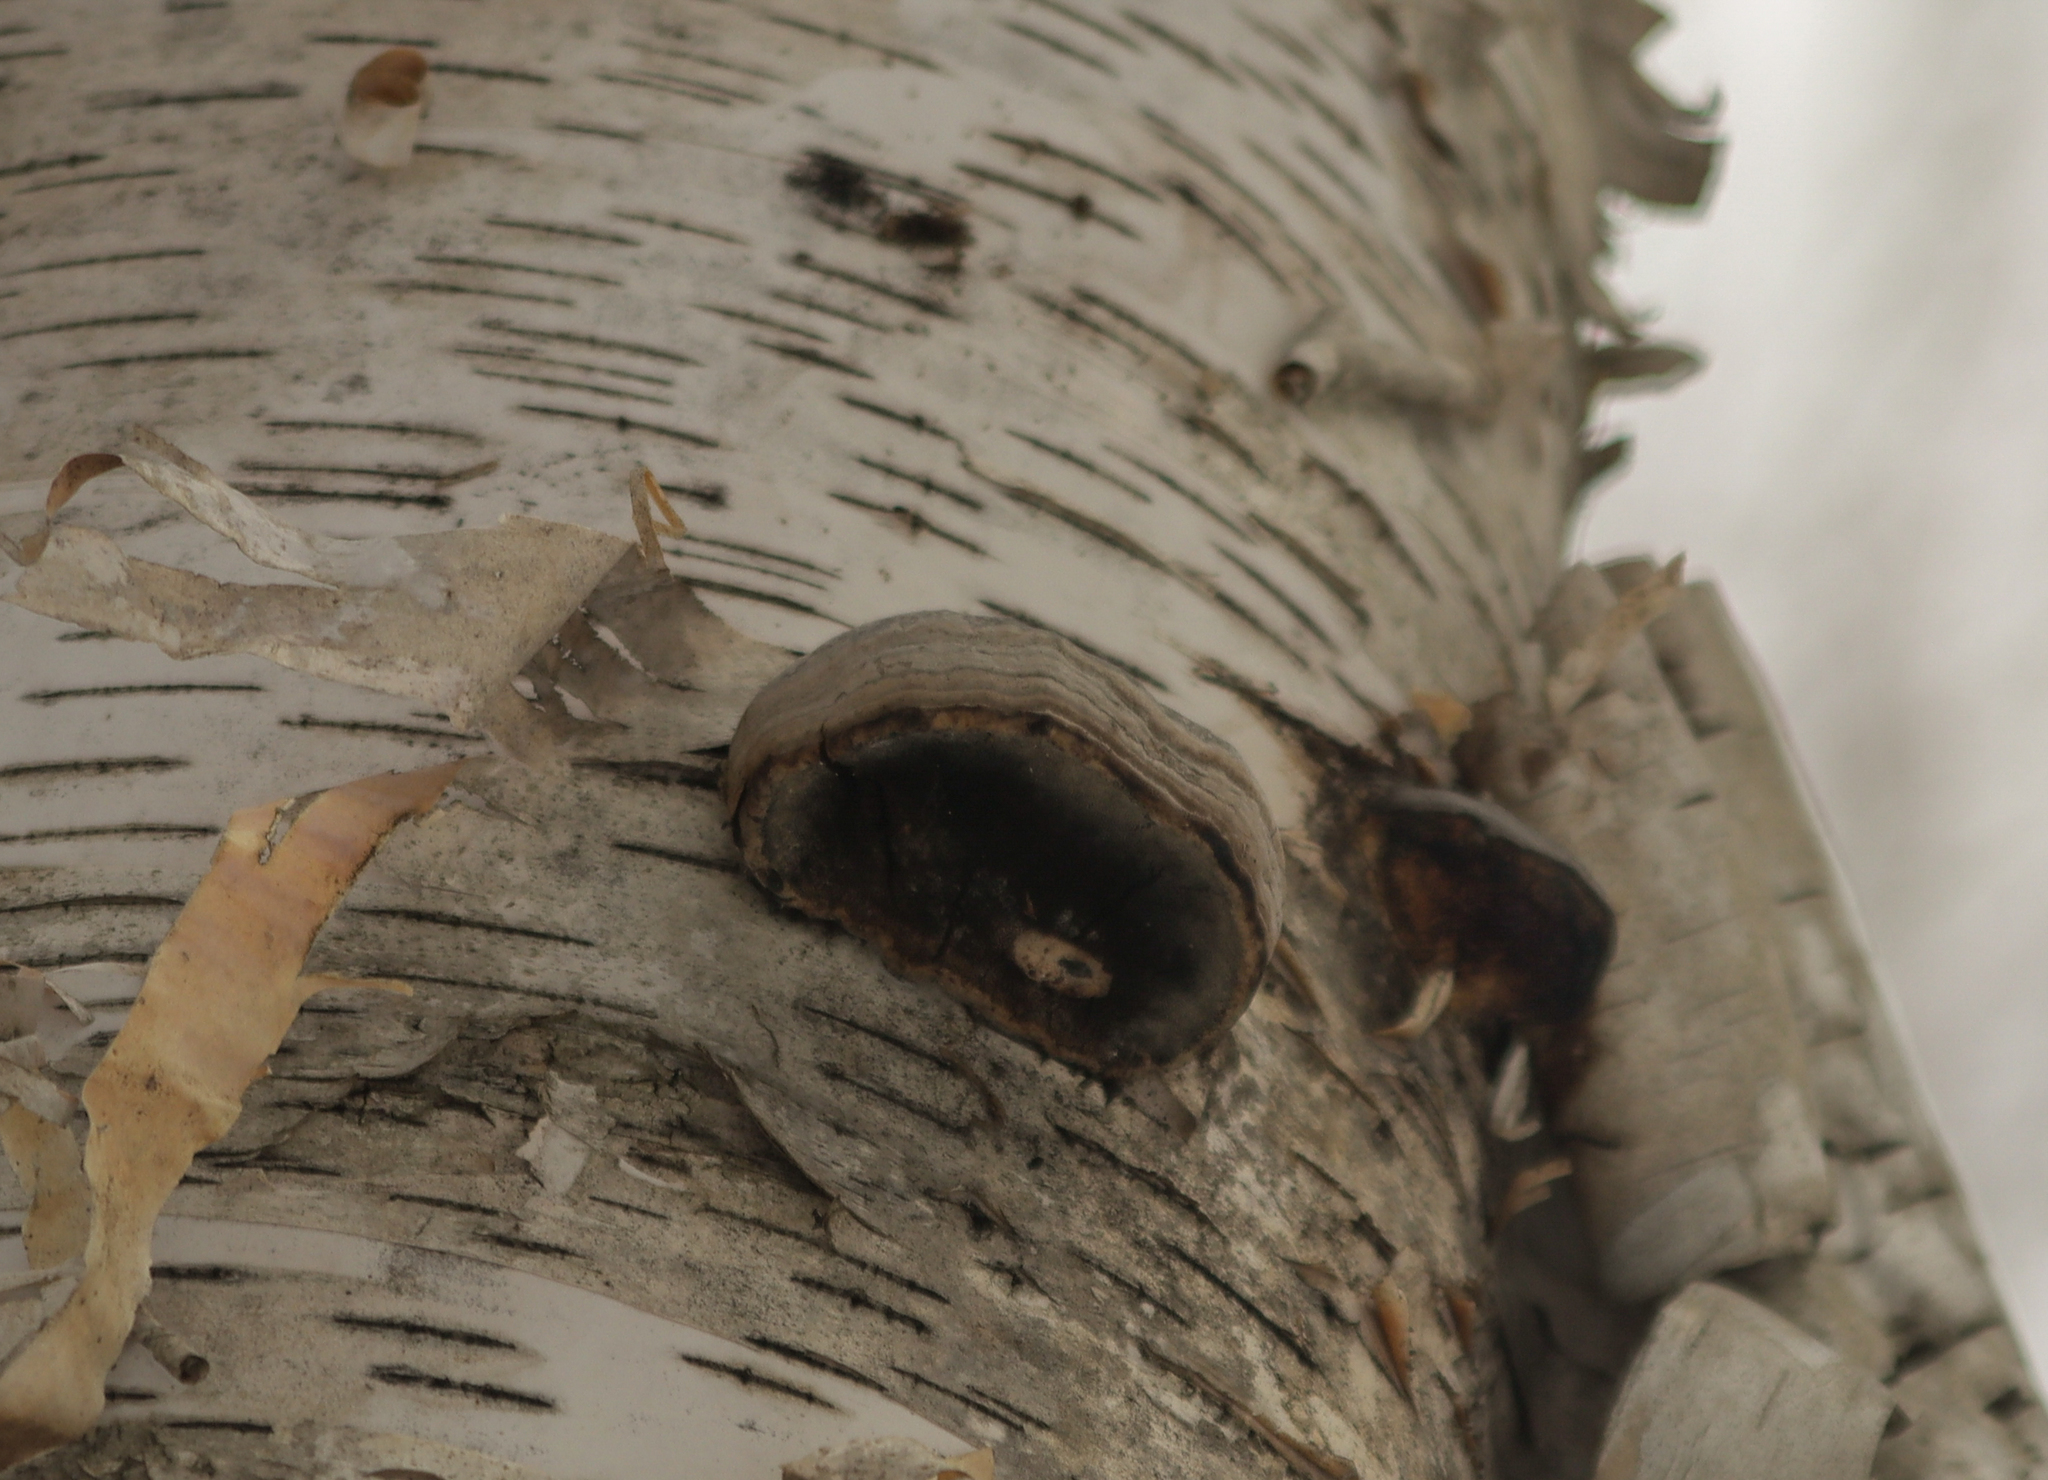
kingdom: Fungi
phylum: Basidiomycota
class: Agaricomycetes
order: Polyporales
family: Polyporaceae
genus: Fomes
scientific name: Fomes fomentarius
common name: Hoof fungus
